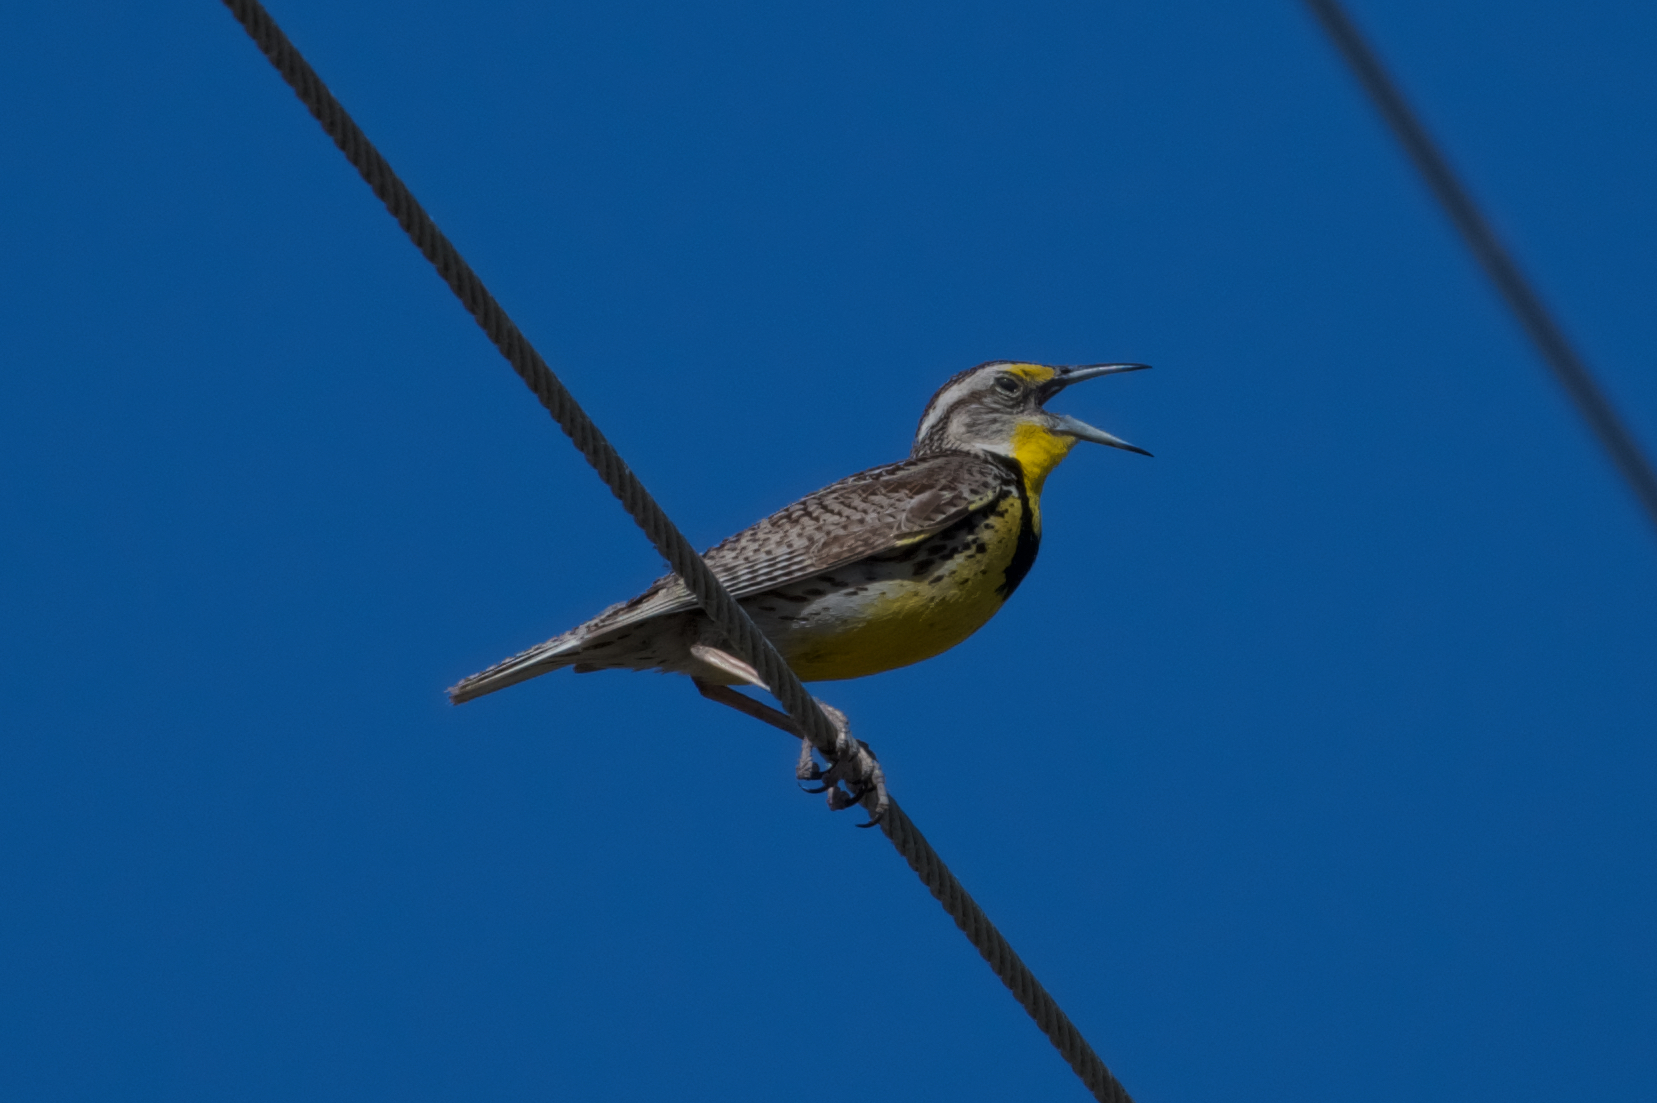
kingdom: Animalia
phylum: Chordata
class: Aves
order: Passeriformes
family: Icteridae
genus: Sturnella
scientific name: Sturnella neglecta
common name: Western meadowlark
